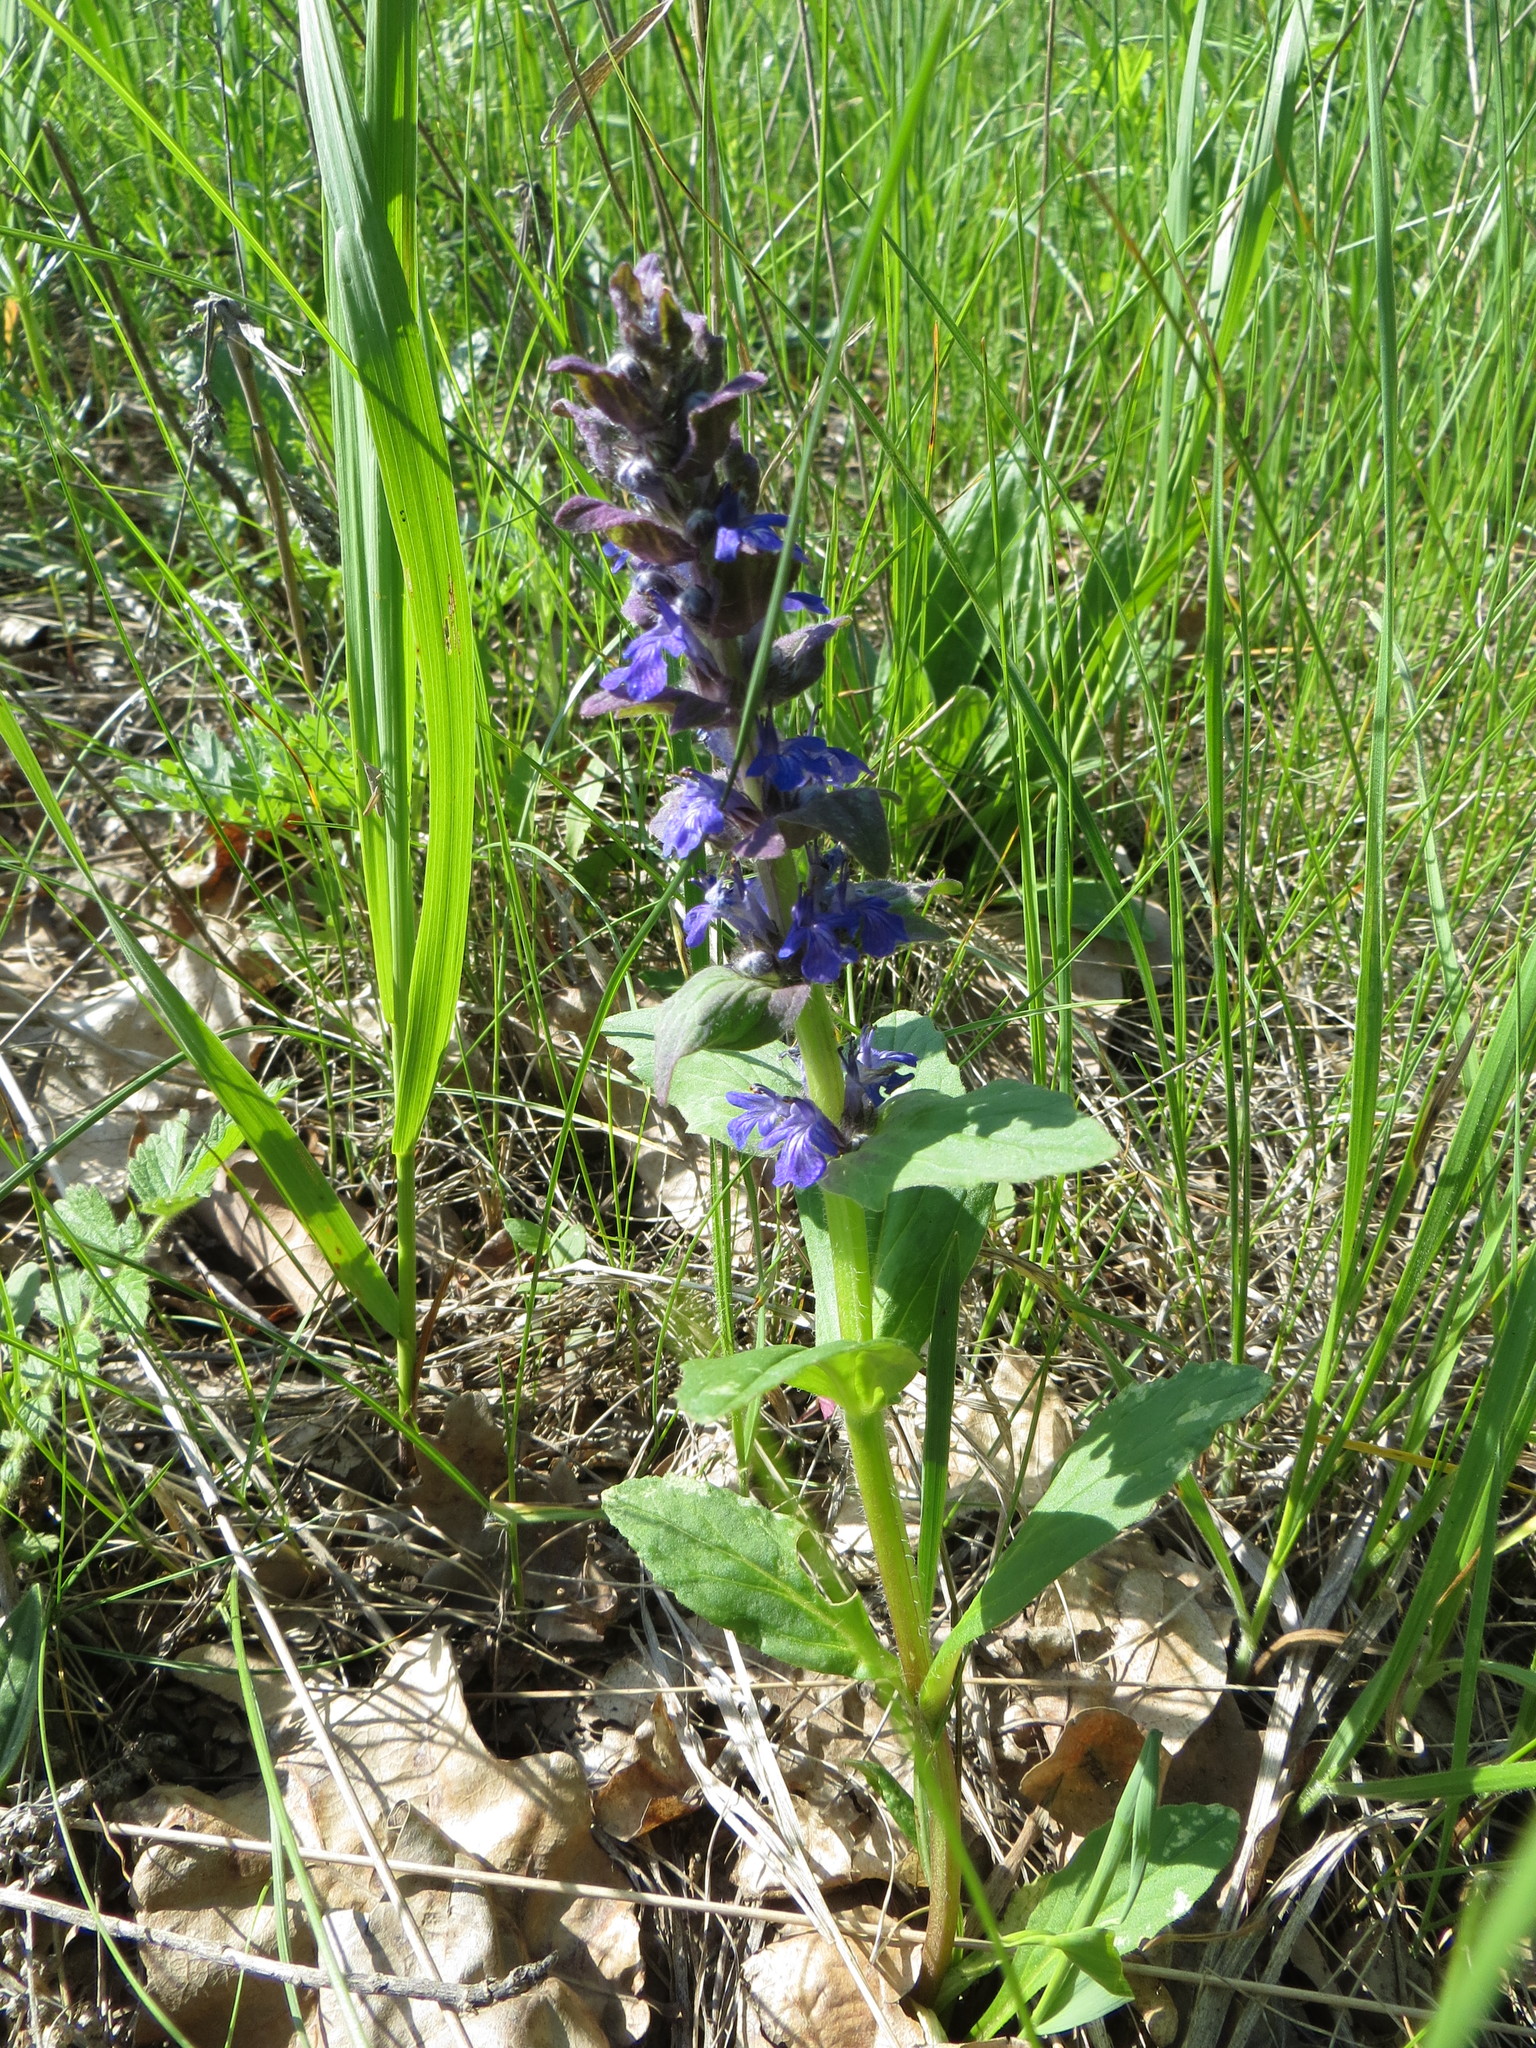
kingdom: Plantae
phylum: Tracheophyta
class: Magnoliopsida
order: Lamiales
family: Lamiaceae
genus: Ajuga
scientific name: Ajuga genevensis
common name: Blue bugle
